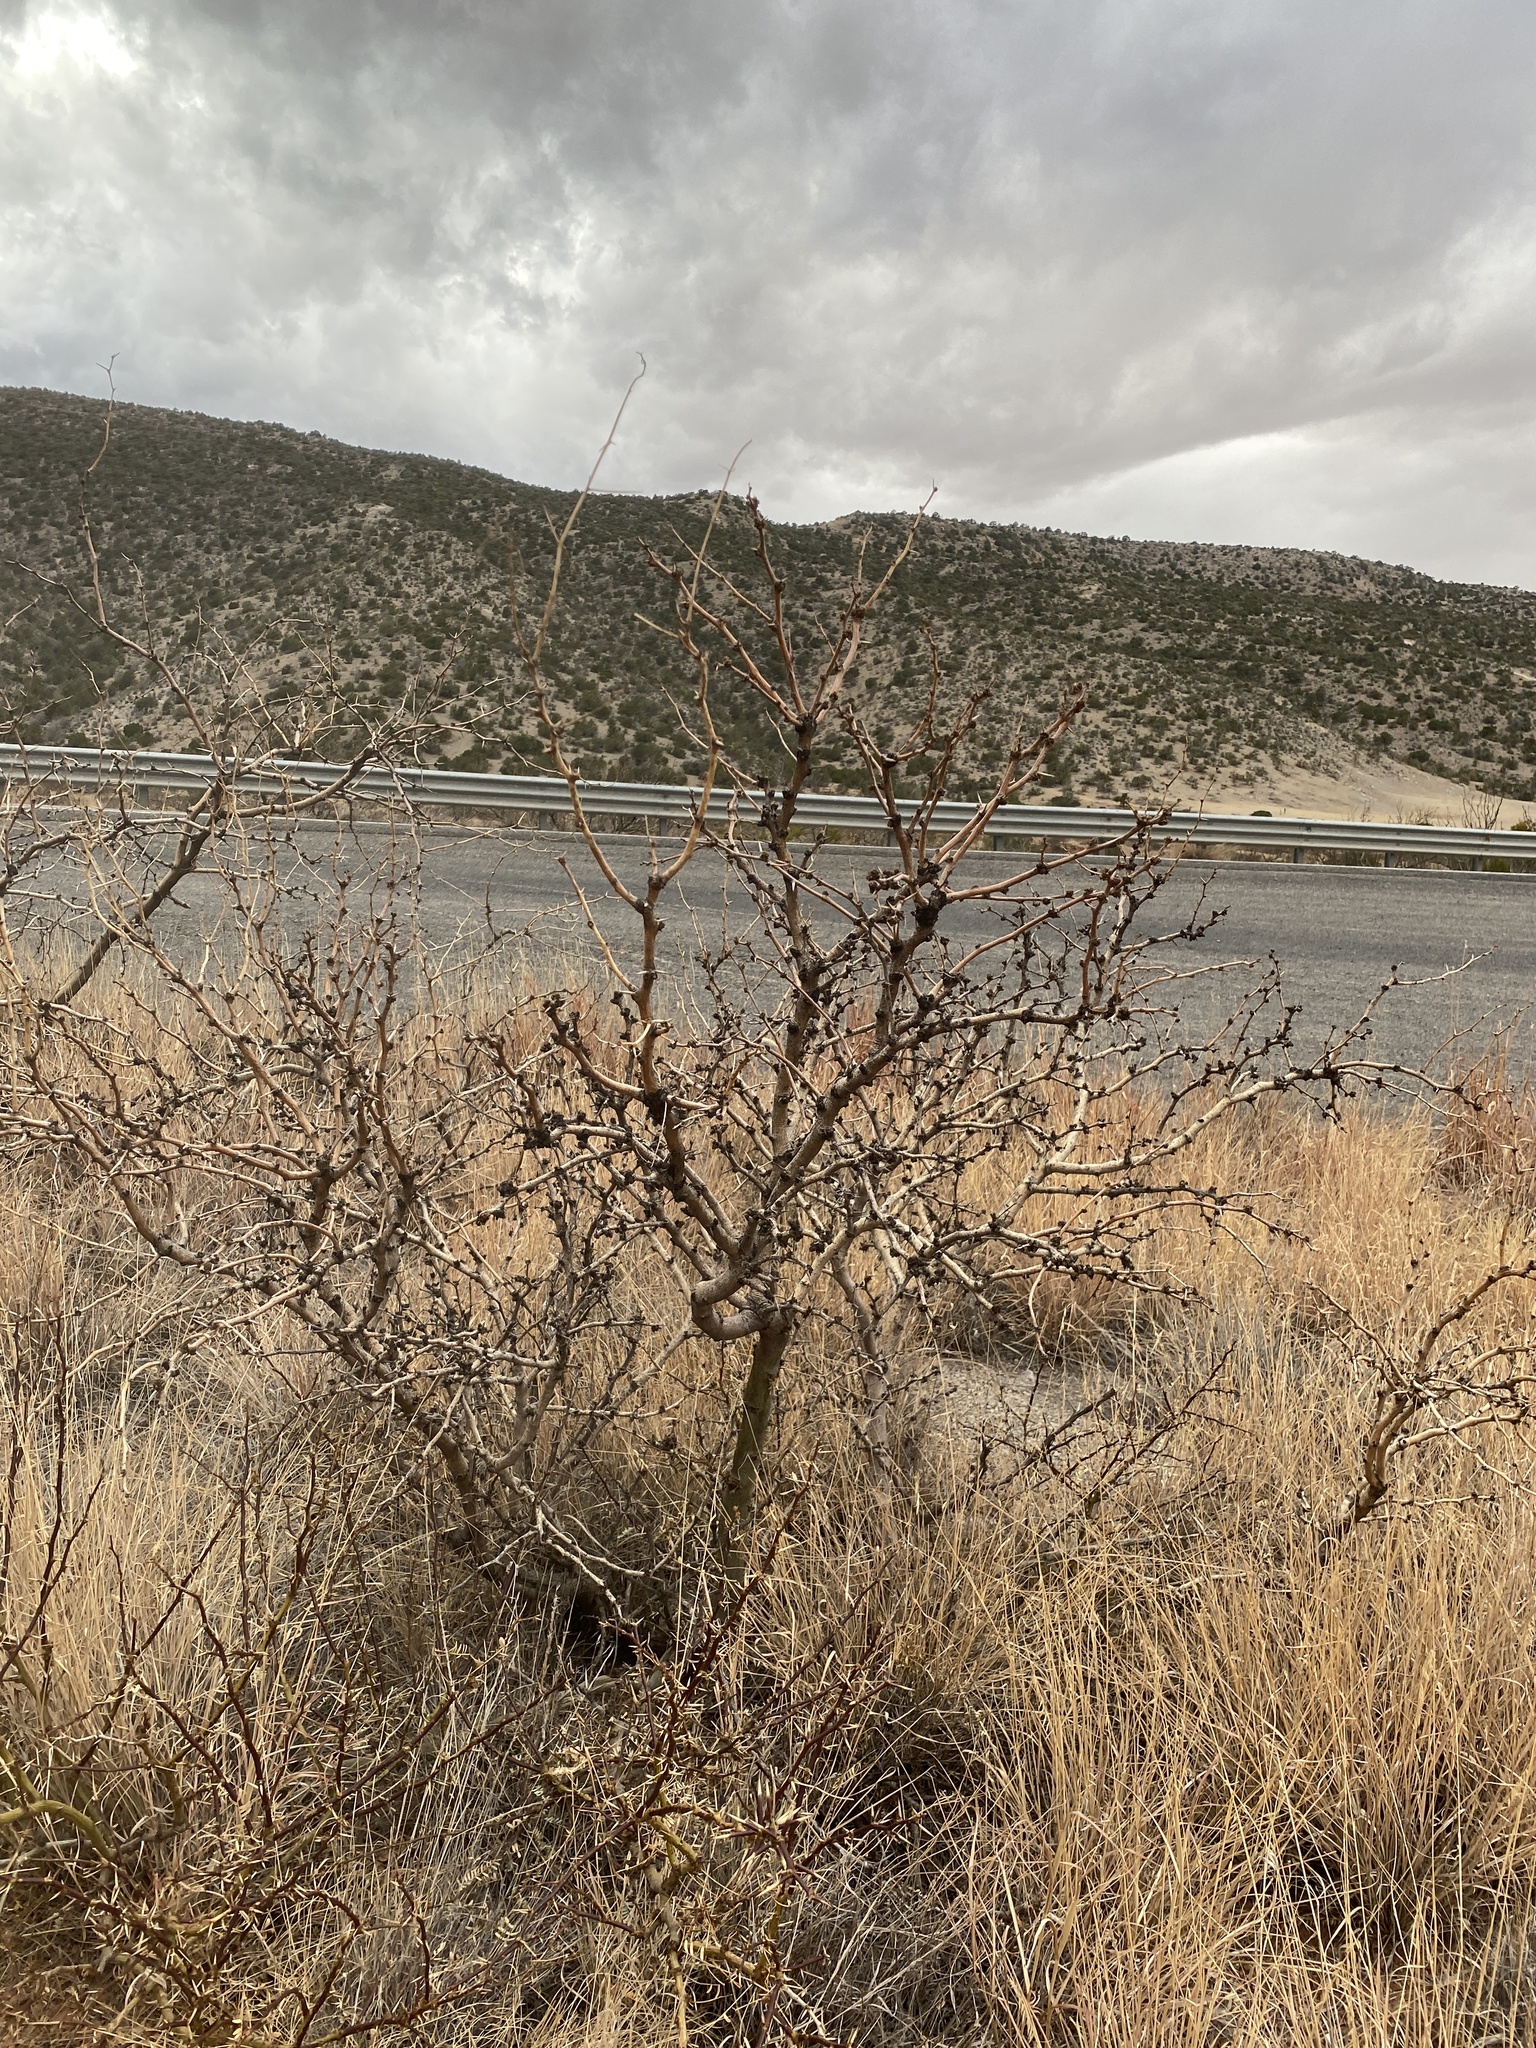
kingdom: Plantae
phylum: Tracheophyta
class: Magnoliopsida
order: Fabales
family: Fabaceae
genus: Prosopis
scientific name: Prosopis glandulosa
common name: Honey mesquite
